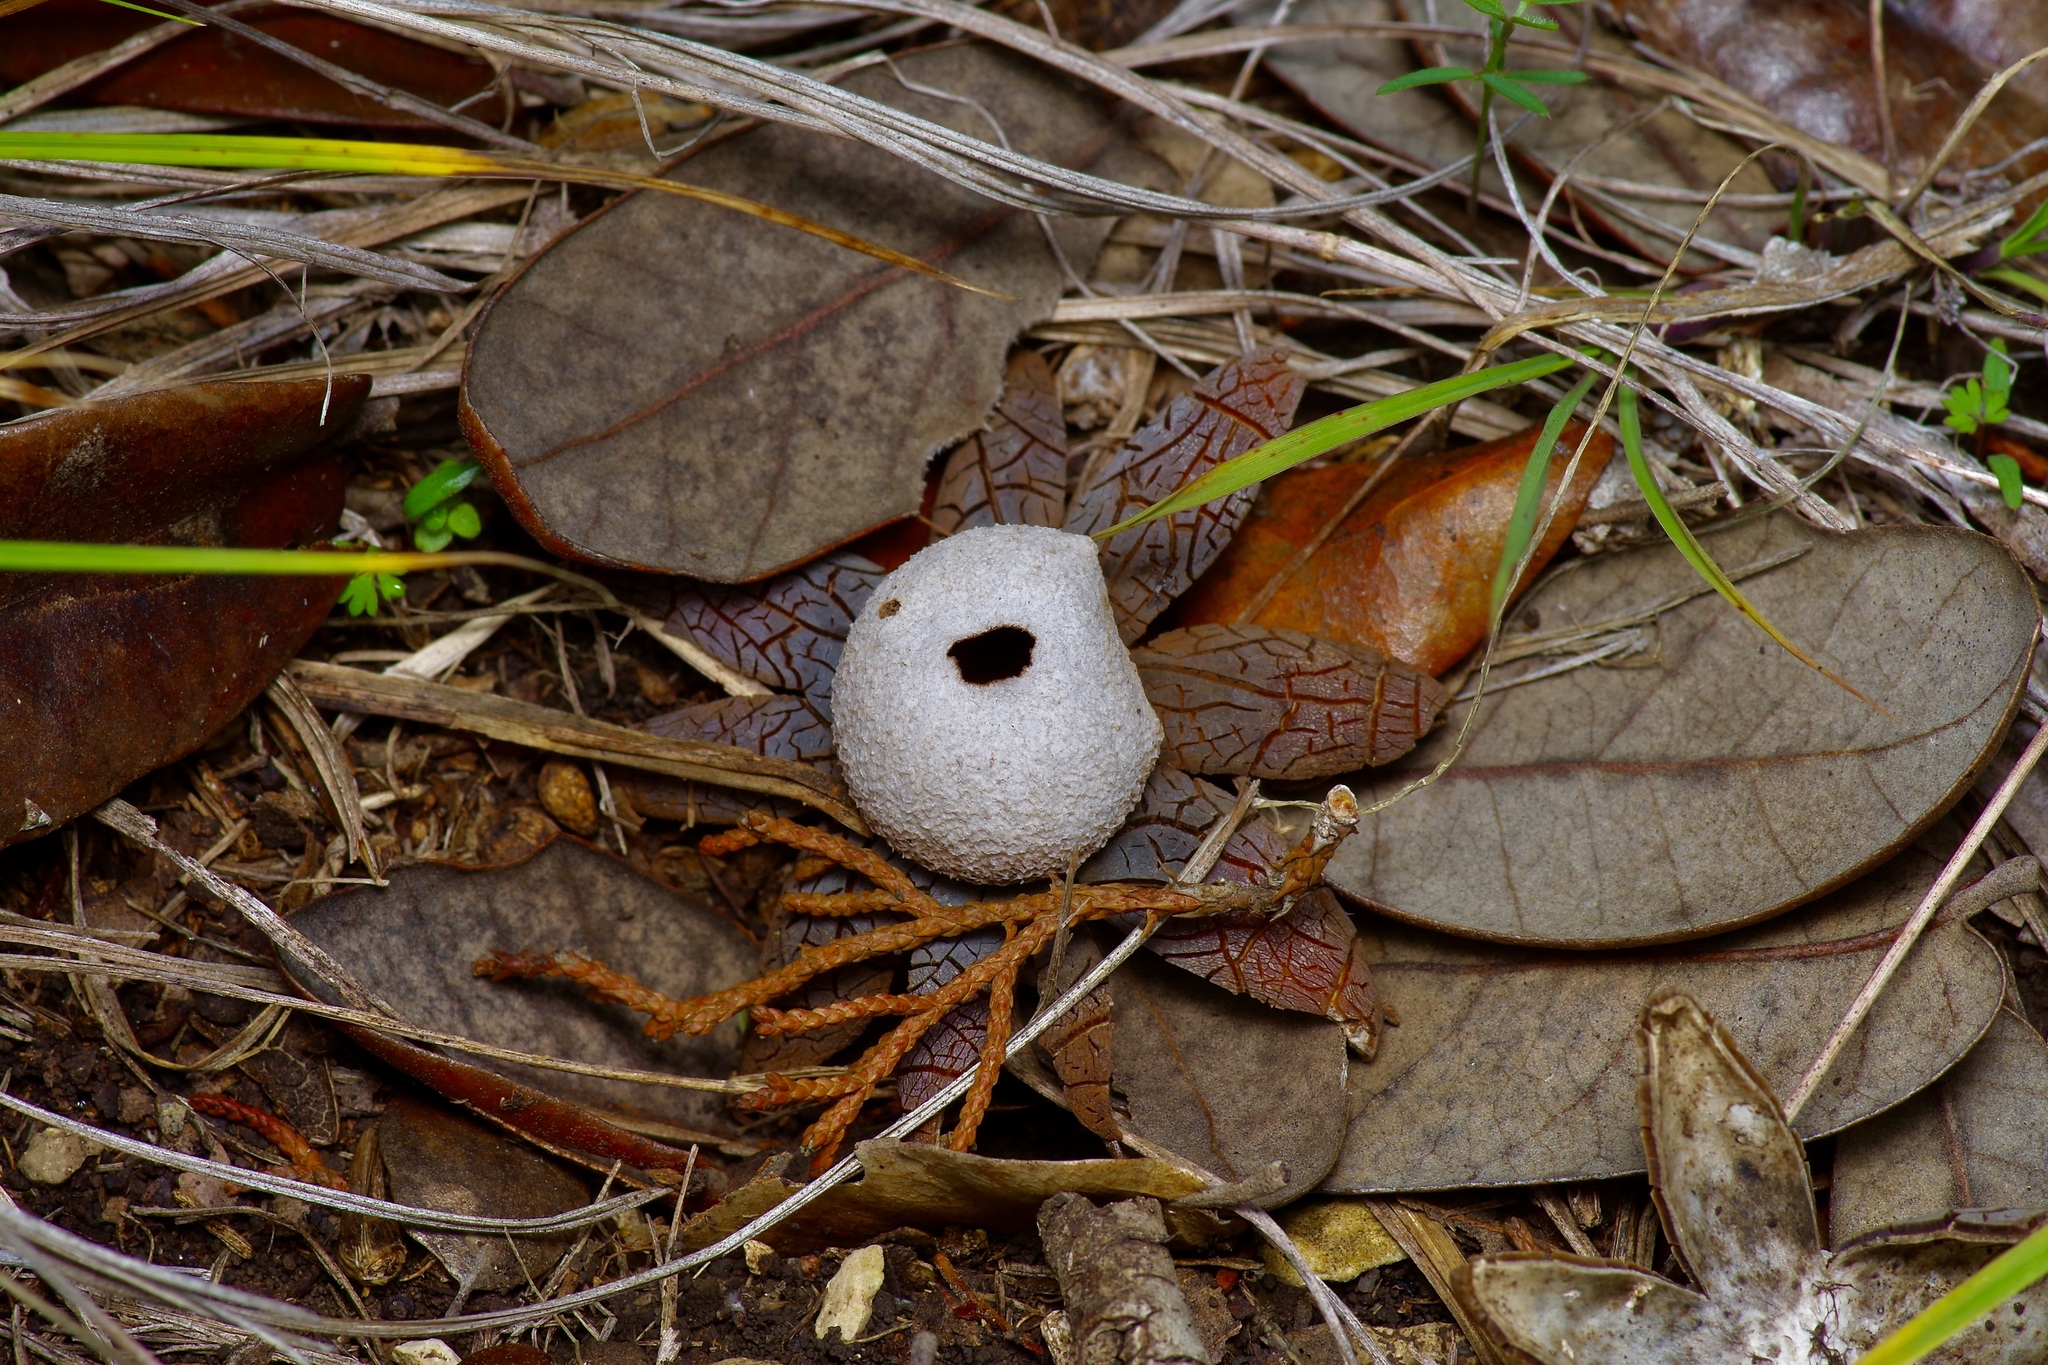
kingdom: Fungi
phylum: Basidiomycota
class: Agaricomycetes
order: Boletales
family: Diplocystidiaceae
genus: Astraeus
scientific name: Astraeus morganii
